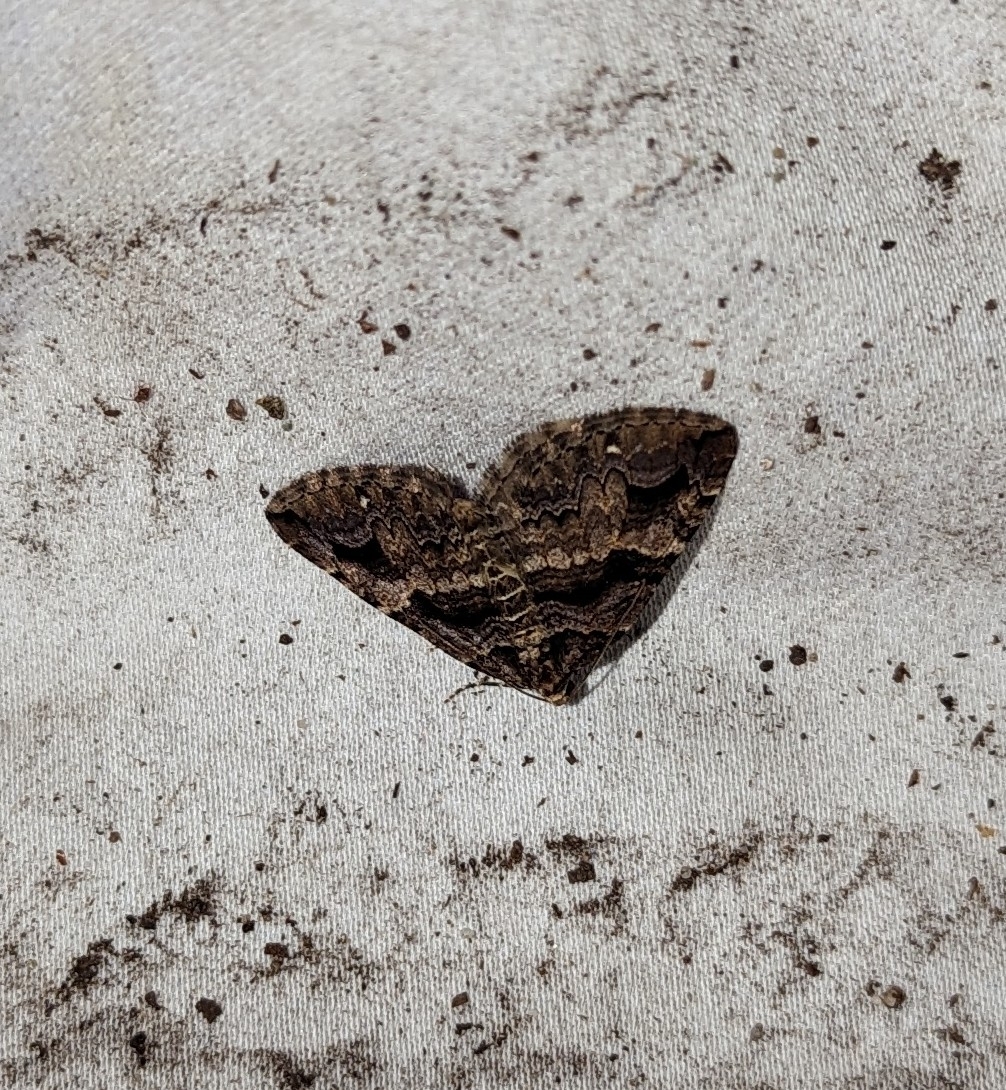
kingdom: Animalia
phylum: Arthropoda
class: Insecta
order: Lepidoptera
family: Geometridae
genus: Anticlea
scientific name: Anticlea vasiliata
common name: Variable carpet
